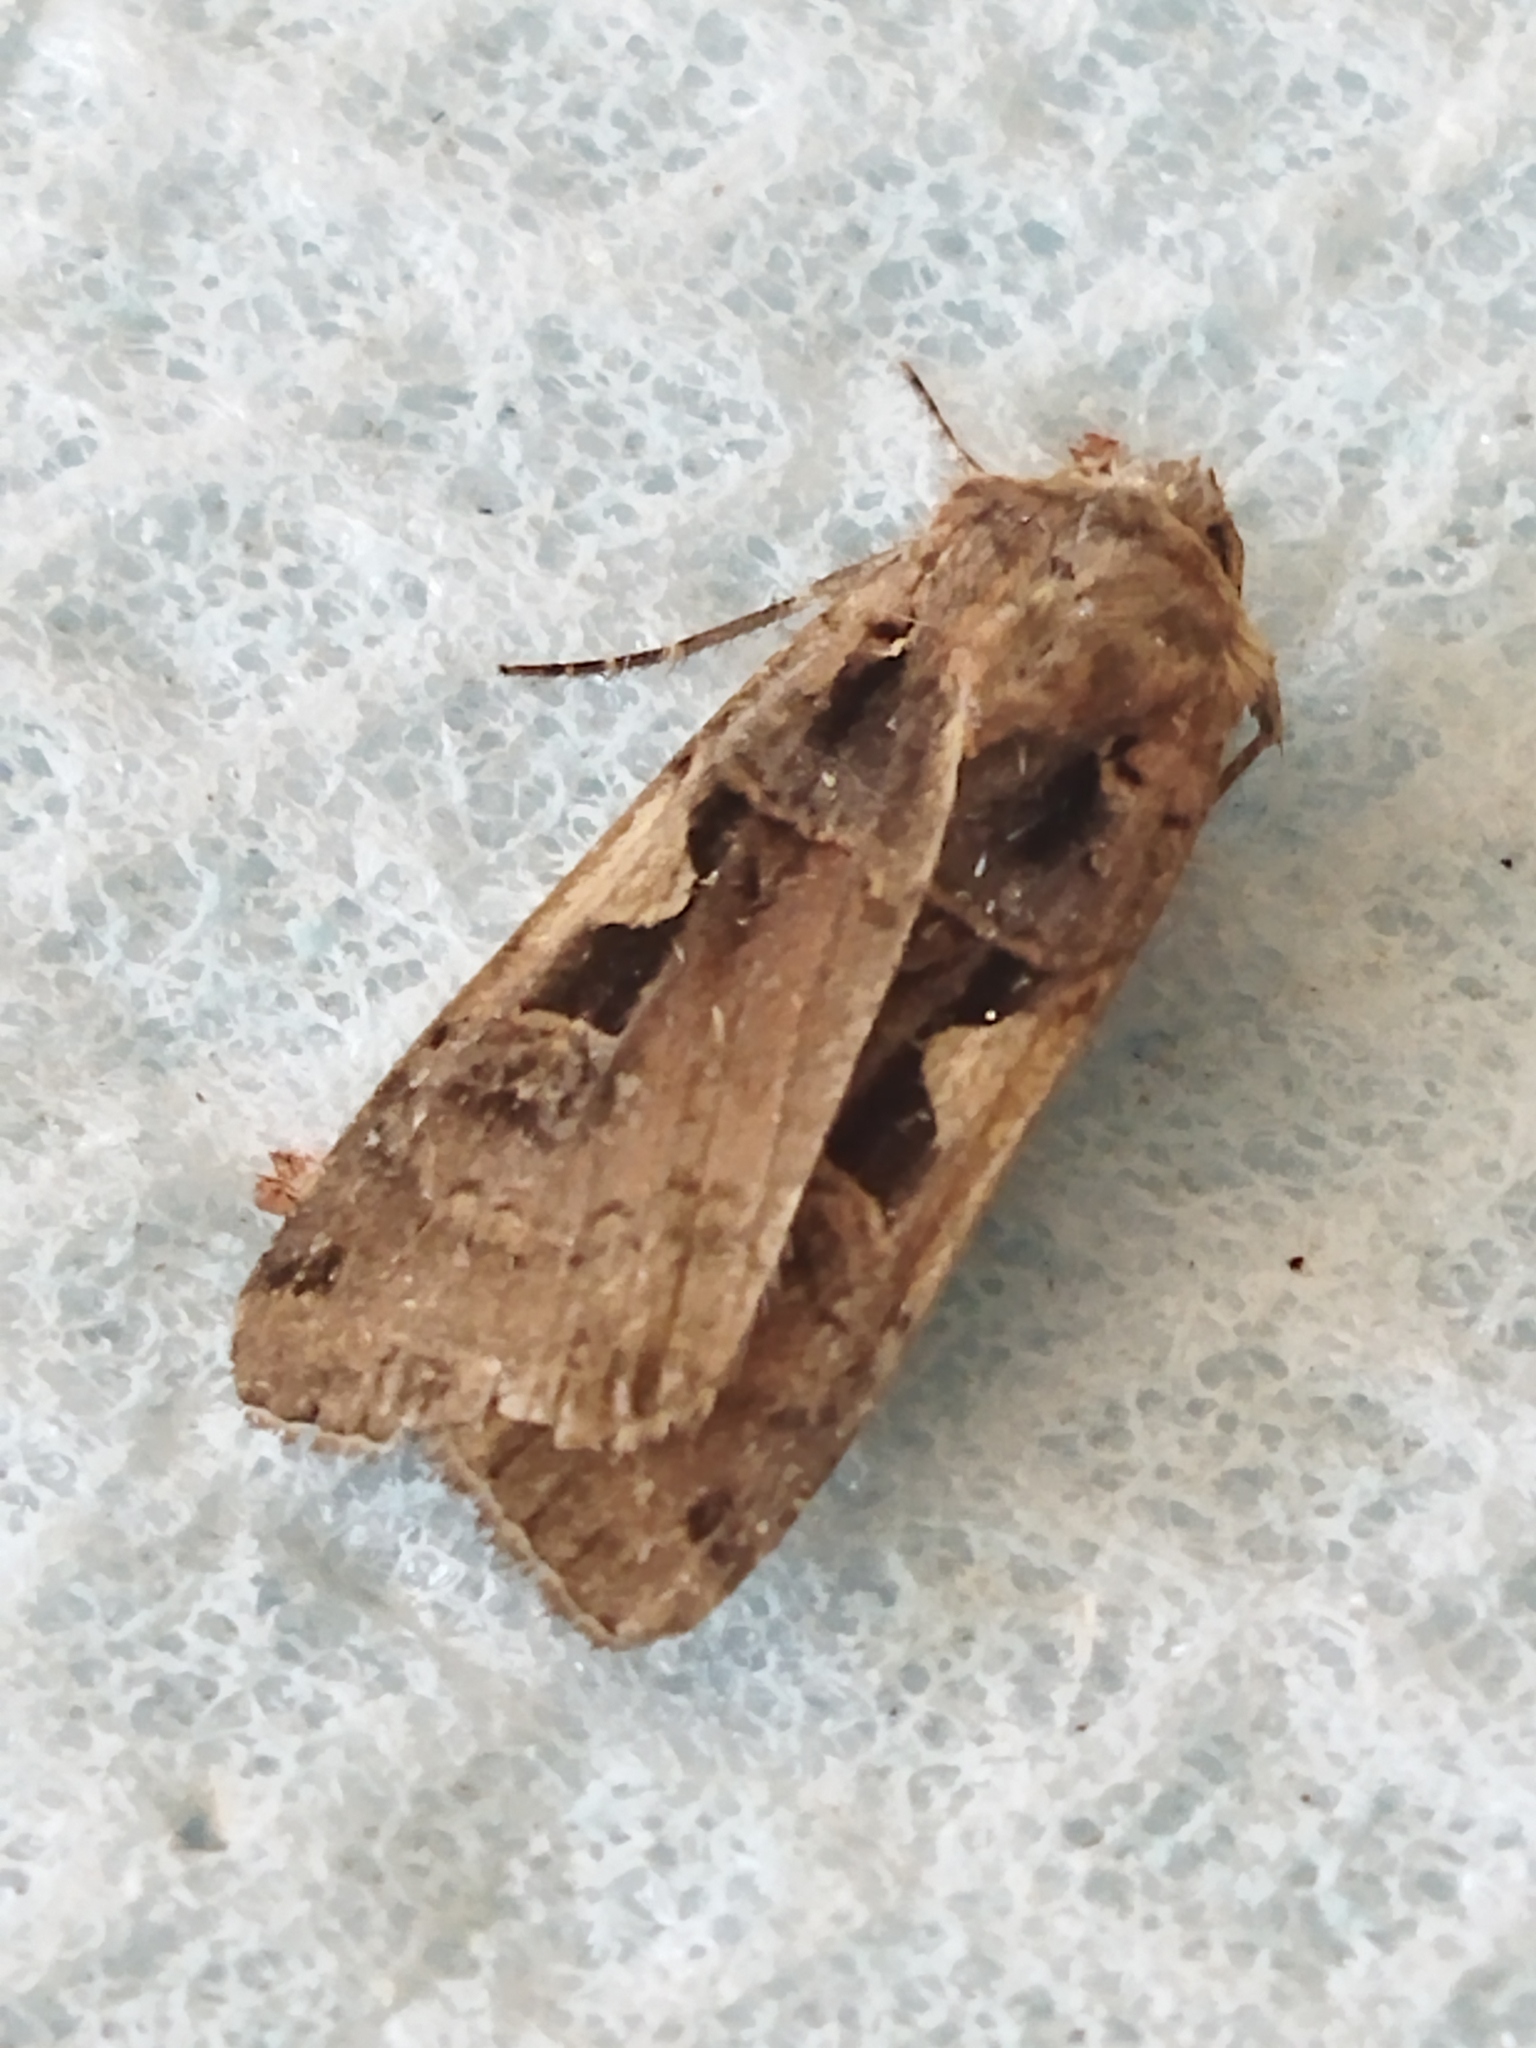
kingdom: Animalia
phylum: Arthropoda
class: Insecta
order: Lepidoptera
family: Noctuidae
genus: Xestia
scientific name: Xestia c-nigrum
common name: Setaceous hebrew character
